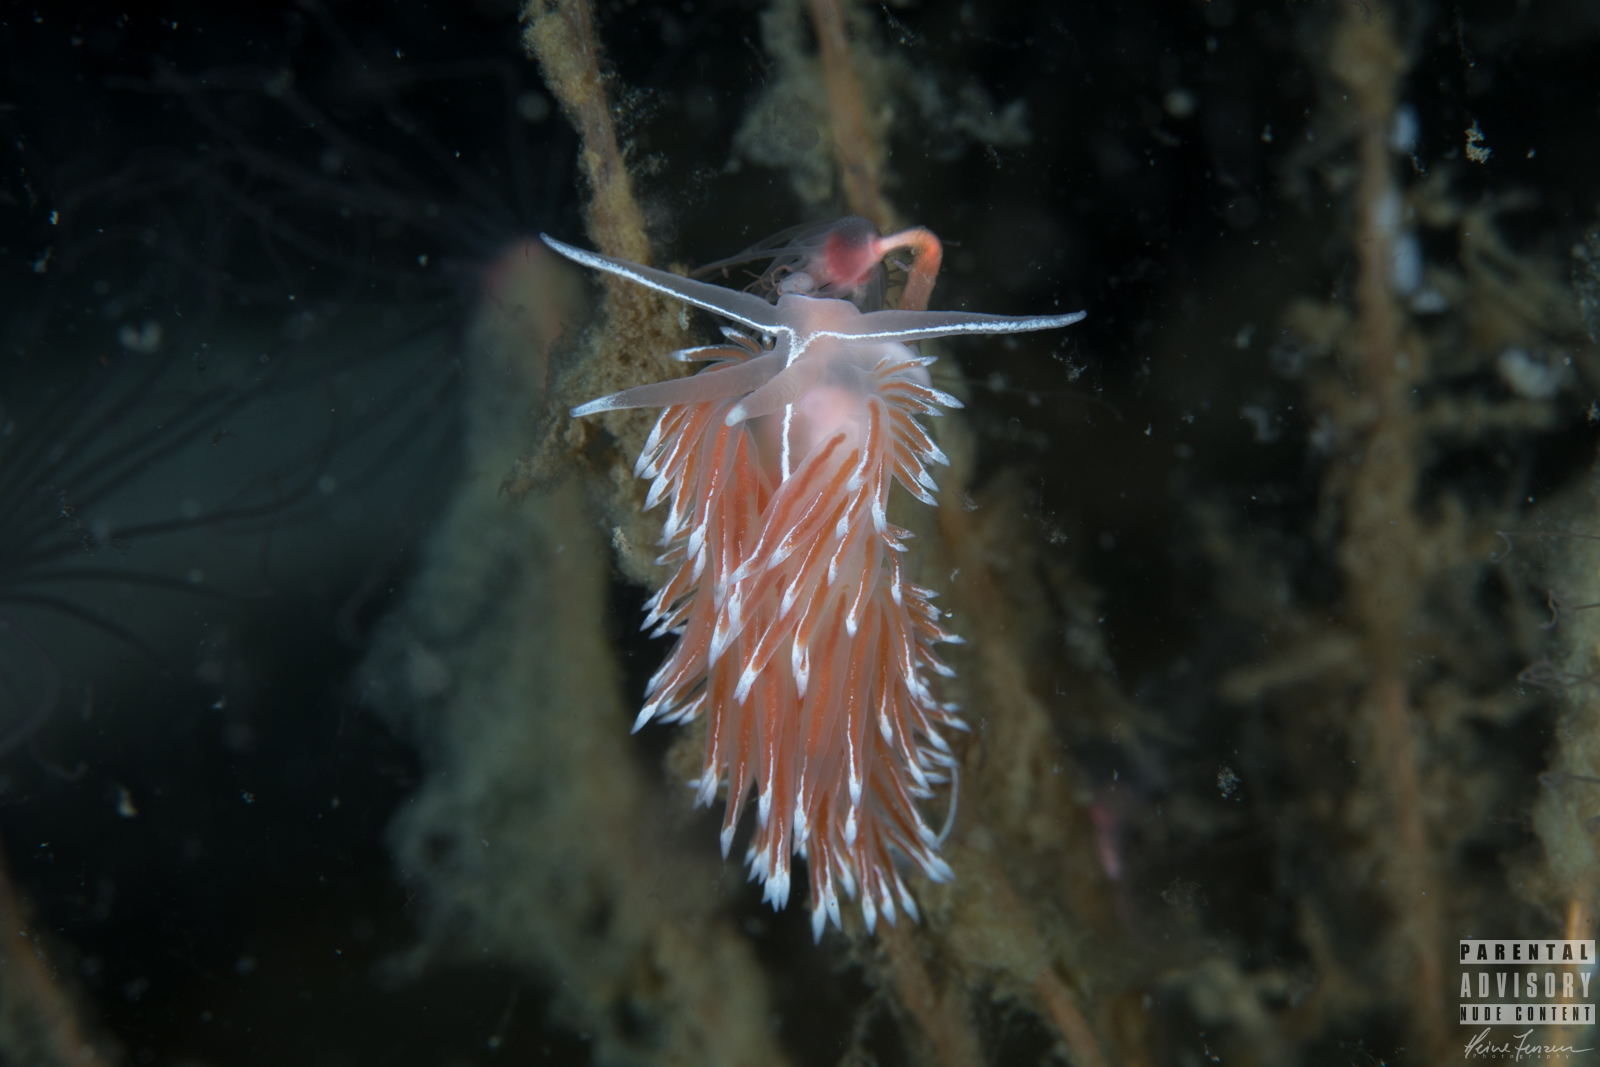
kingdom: Animalia
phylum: Mollusca
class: Gastropoda
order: Nudibranchia
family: Coryphellidae
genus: Coryphella
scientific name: Coryphella lineata
